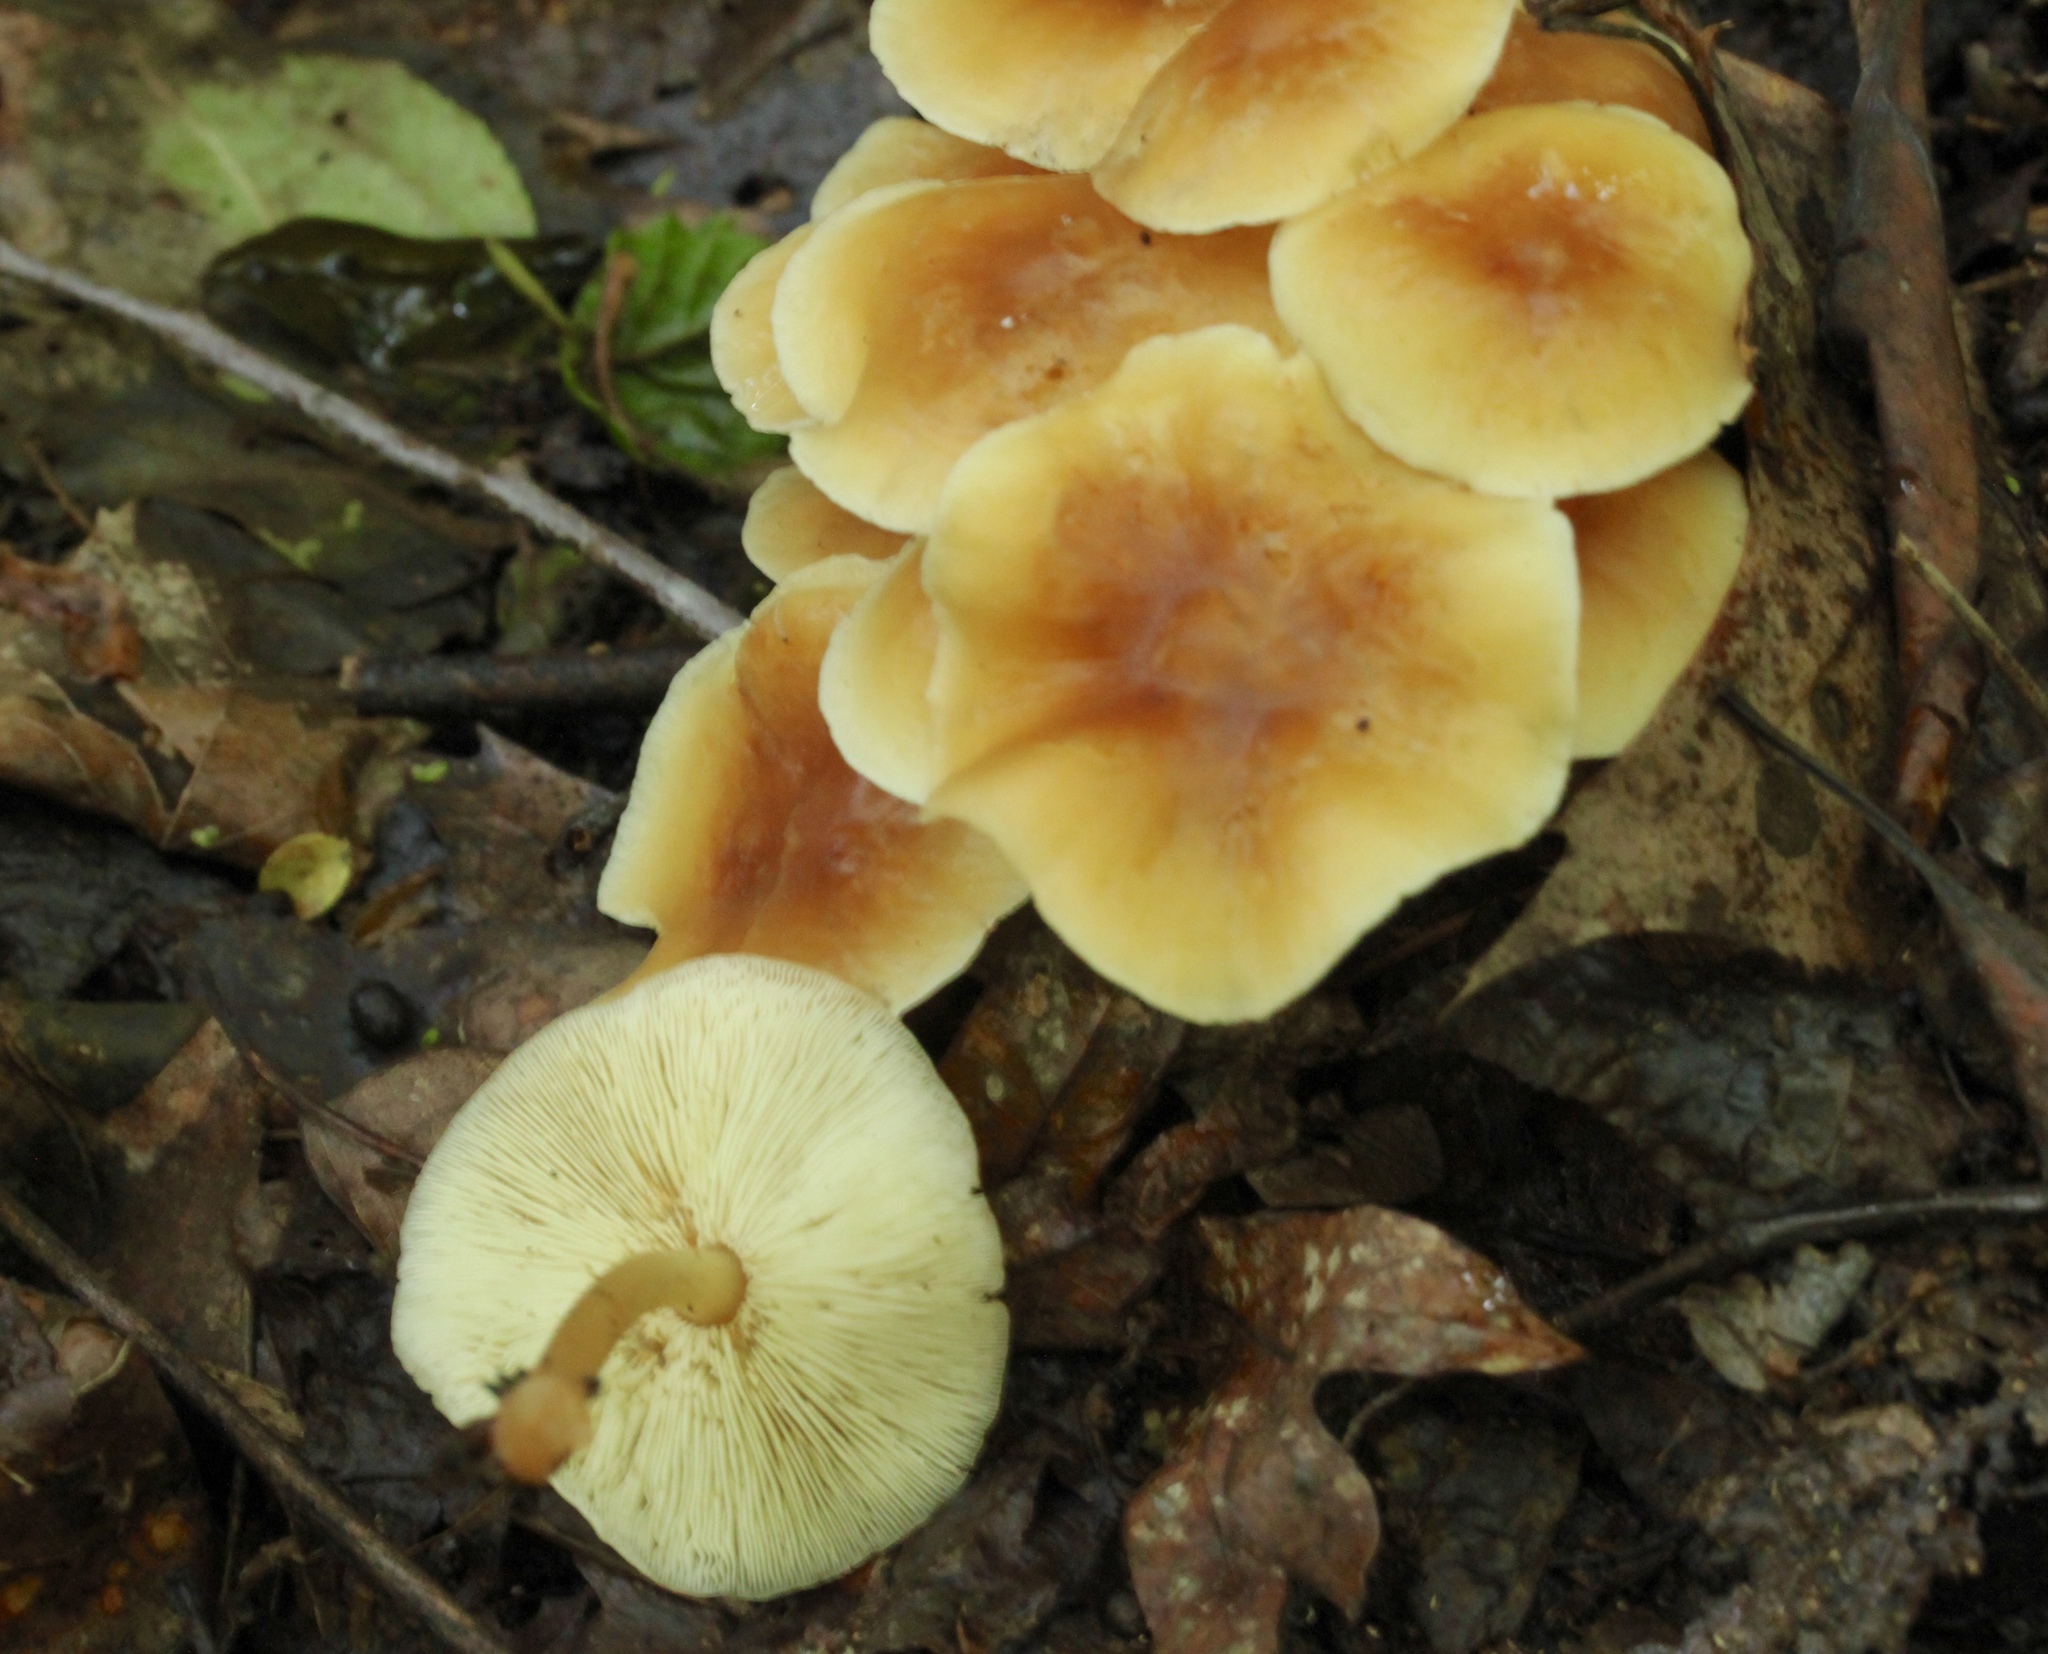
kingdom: Fungi
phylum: Basidiomycota
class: Agaricomycetes
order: Agaricales
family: Omphalotaceae
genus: Gymnopus
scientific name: Gymnopus dryophilus
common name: Penny top
